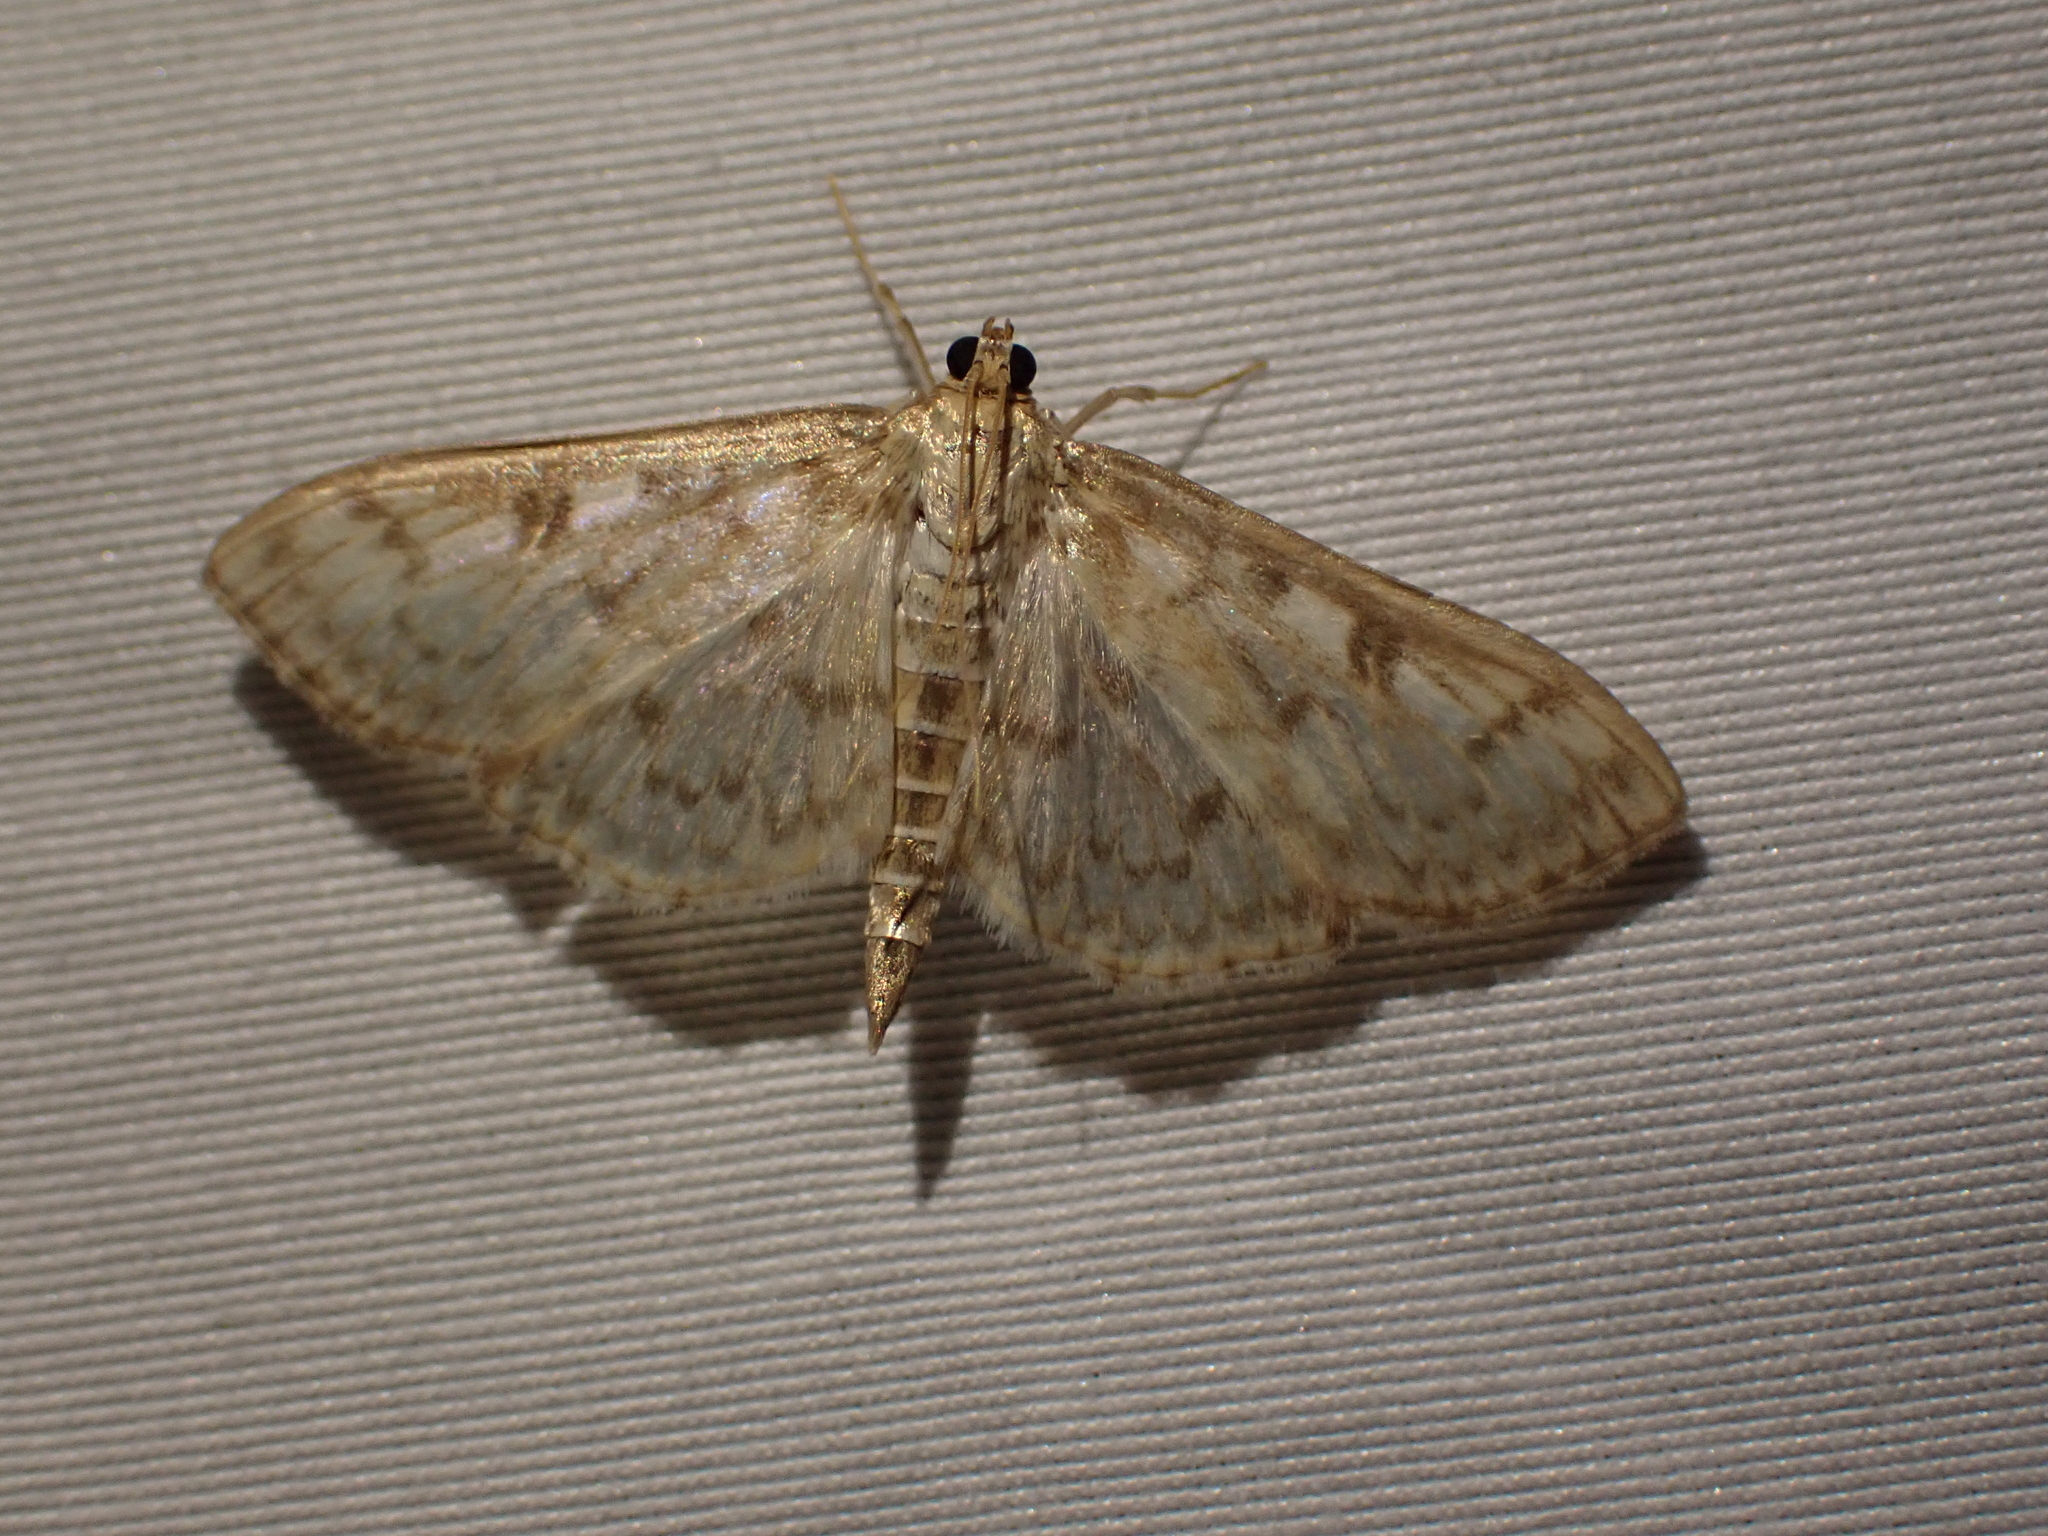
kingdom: Animalia
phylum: Arthropoda
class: Insecta
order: Lepidoptera
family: Crambidae
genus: Herpetogramma
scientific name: Herpetogramma aquilonalis
